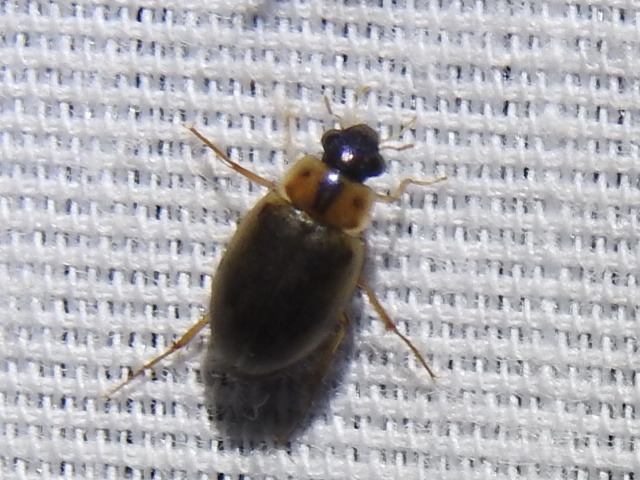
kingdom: Animalia
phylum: Arthropoda
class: Insecta
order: Coleoptera
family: Hydrophilidae
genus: Berosus
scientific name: Berosus
